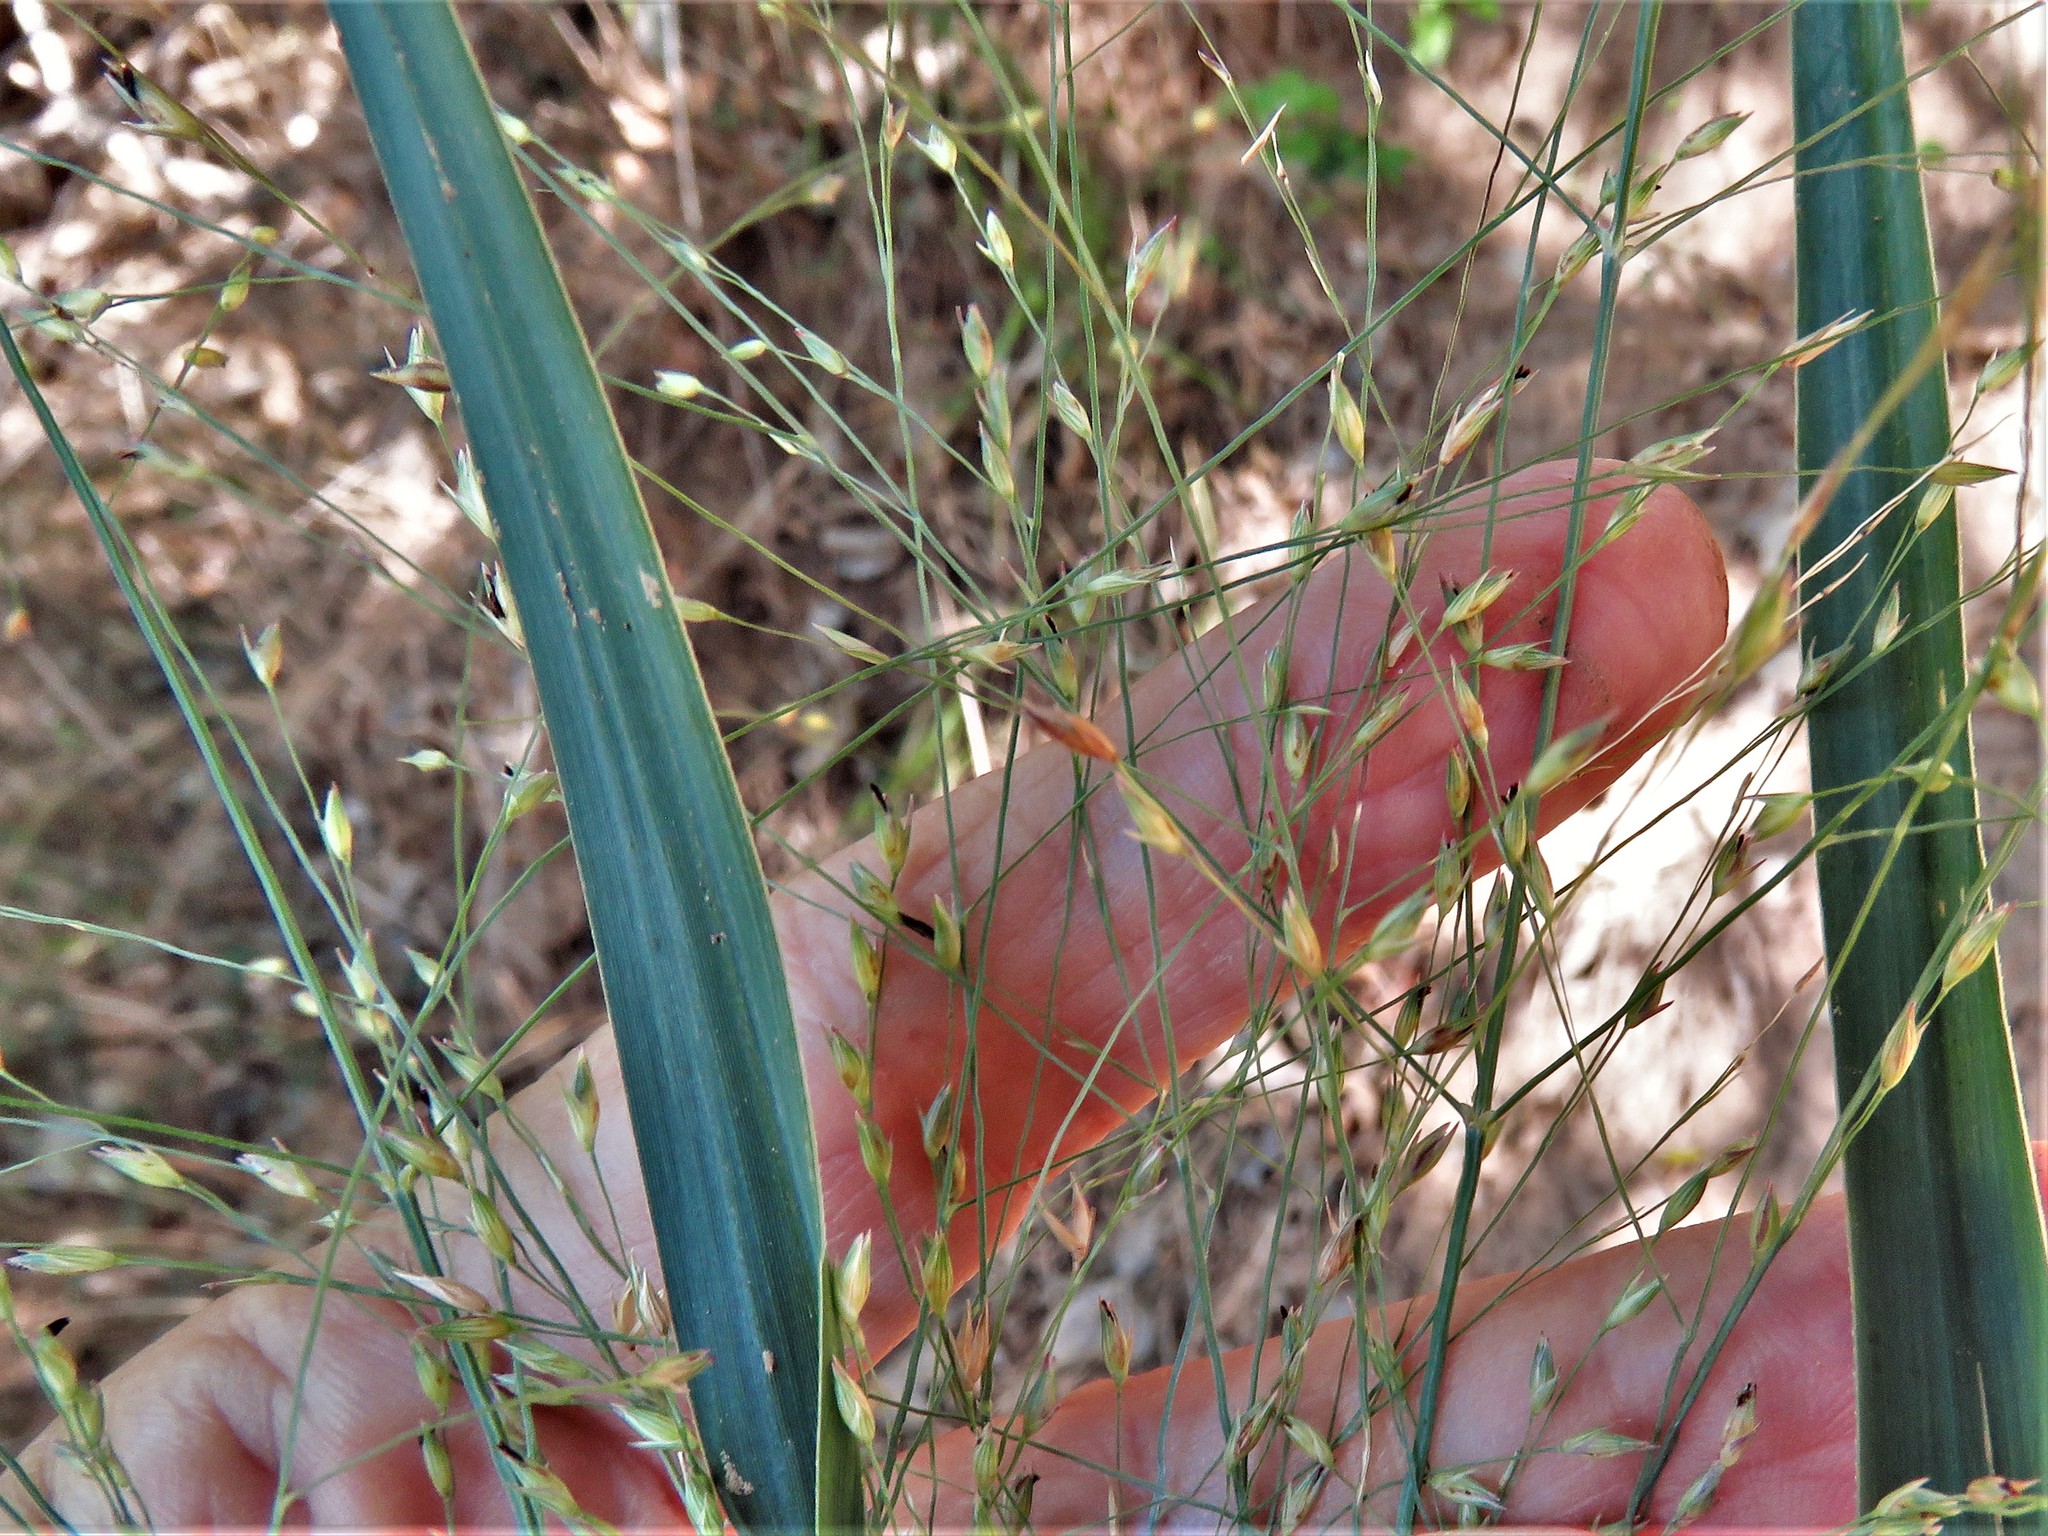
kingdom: Plantae
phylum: Tracheophyta
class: Liliopsida
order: Poales
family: Poaceae
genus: Panicum
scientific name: Panicum virgatum
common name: Switchgrass
